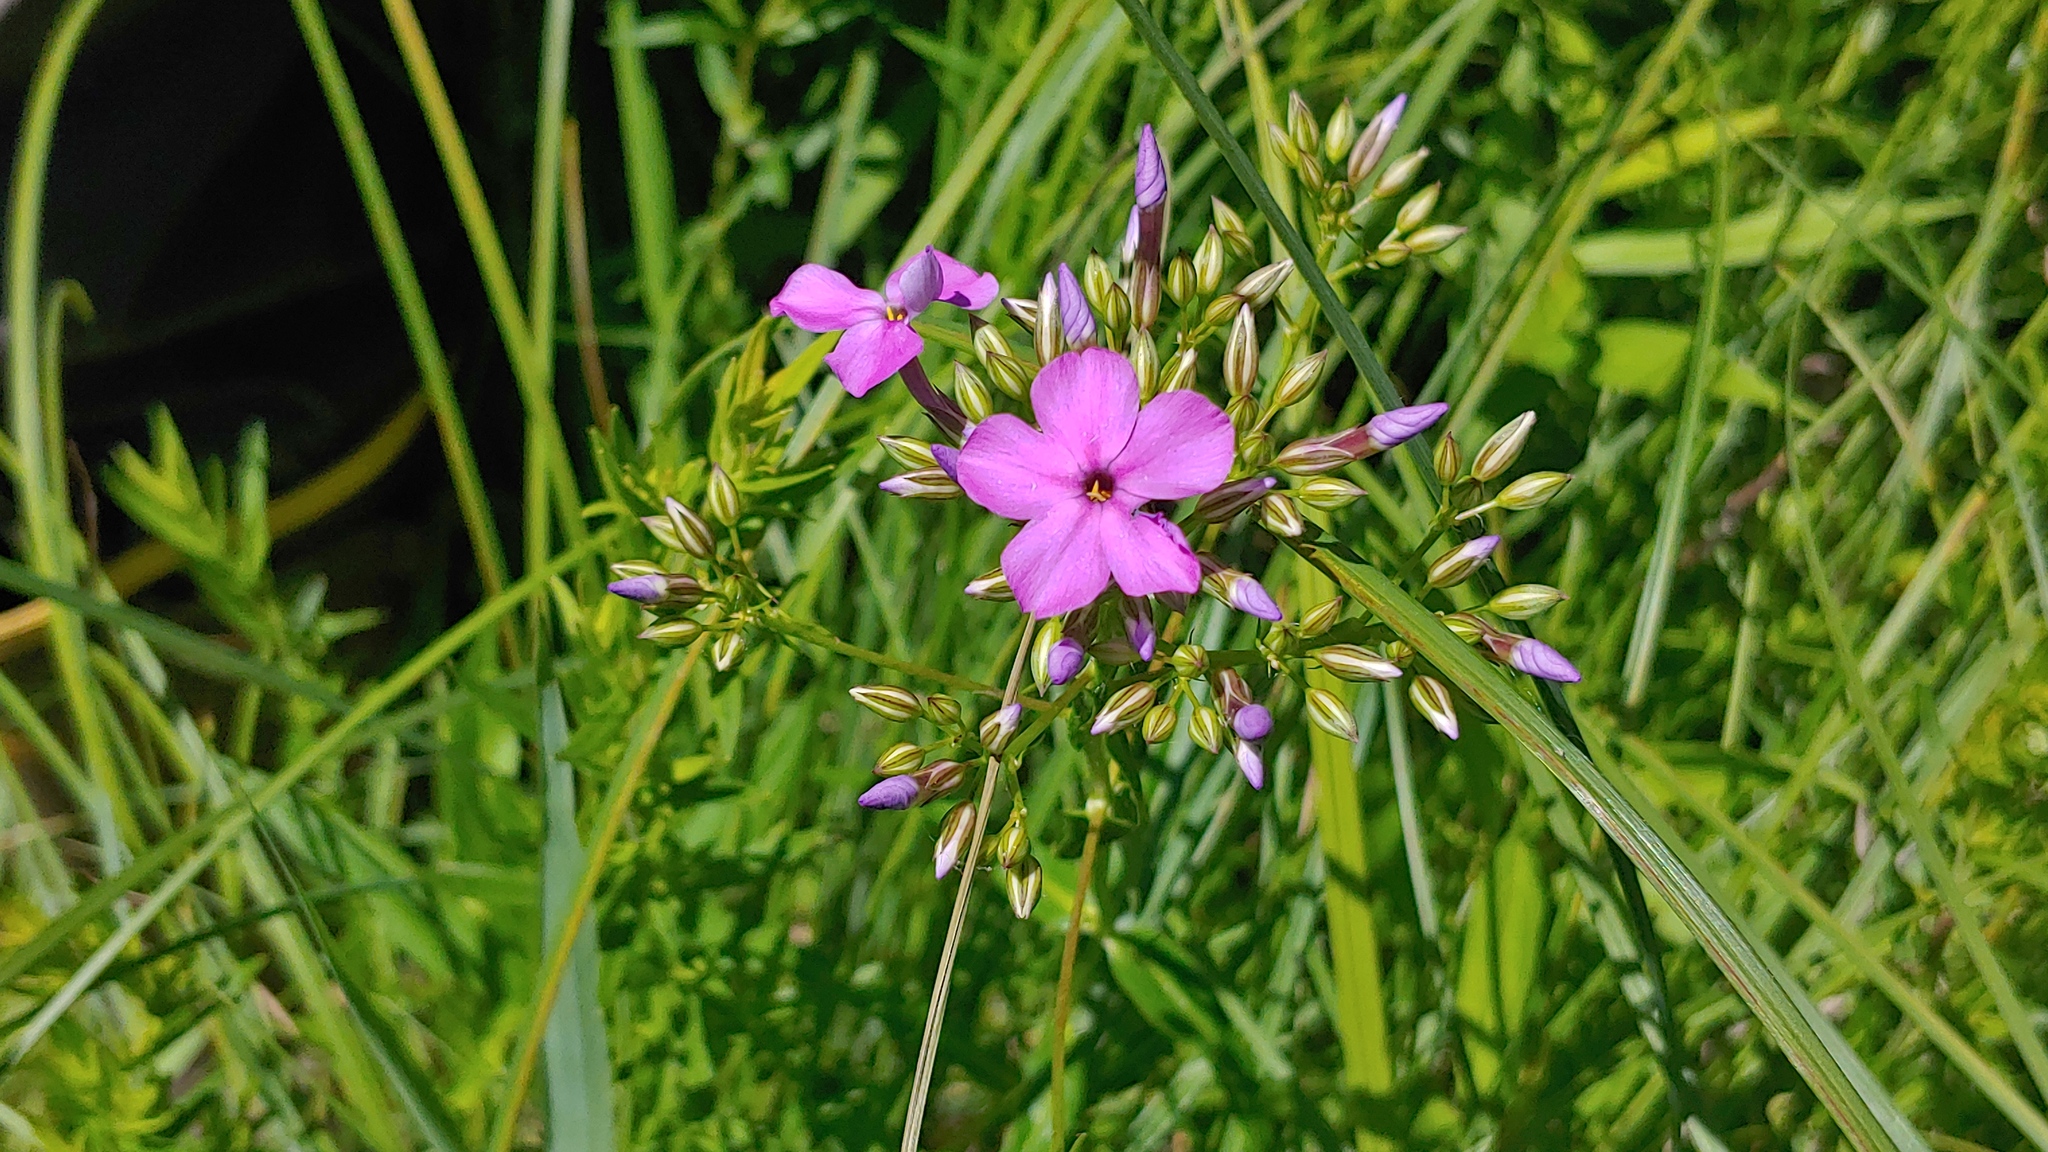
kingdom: Plantae
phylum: Tracheophyta
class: Magnoliopsida
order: Ericales
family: Polemoniaceae
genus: Phlox
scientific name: Phlox glaberrima
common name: Smooth phlox
